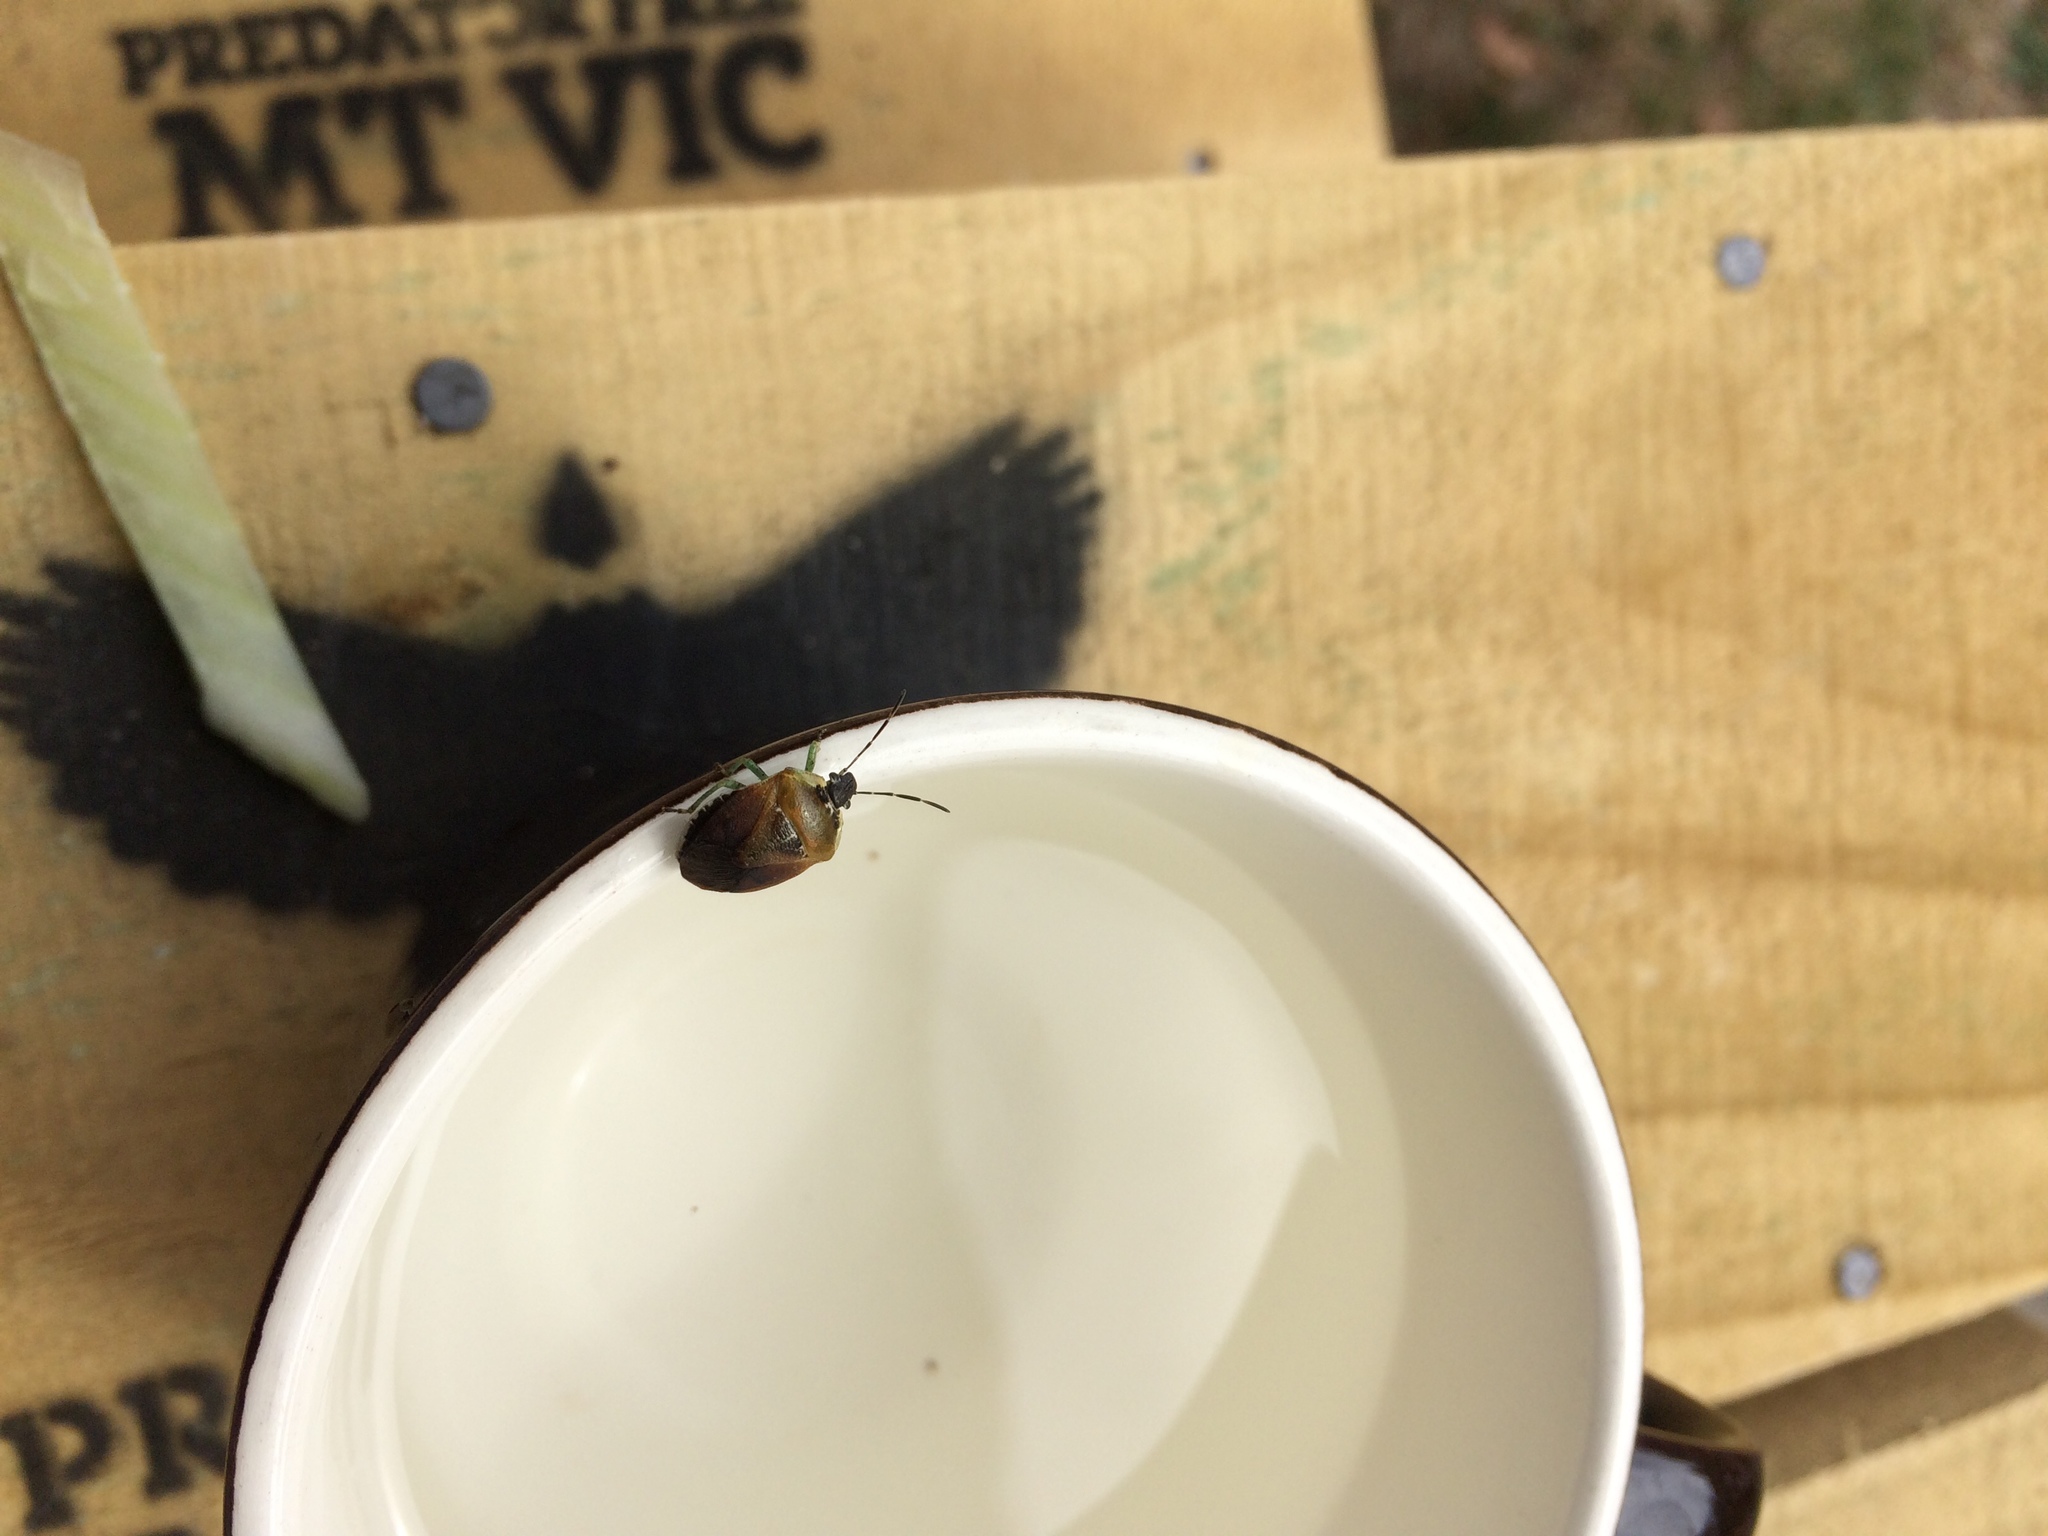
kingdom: Animalia
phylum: Arthropoda
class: Insecta
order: Hemiptera
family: Pentatomidae
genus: Monteithiella
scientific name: Monteithiella
